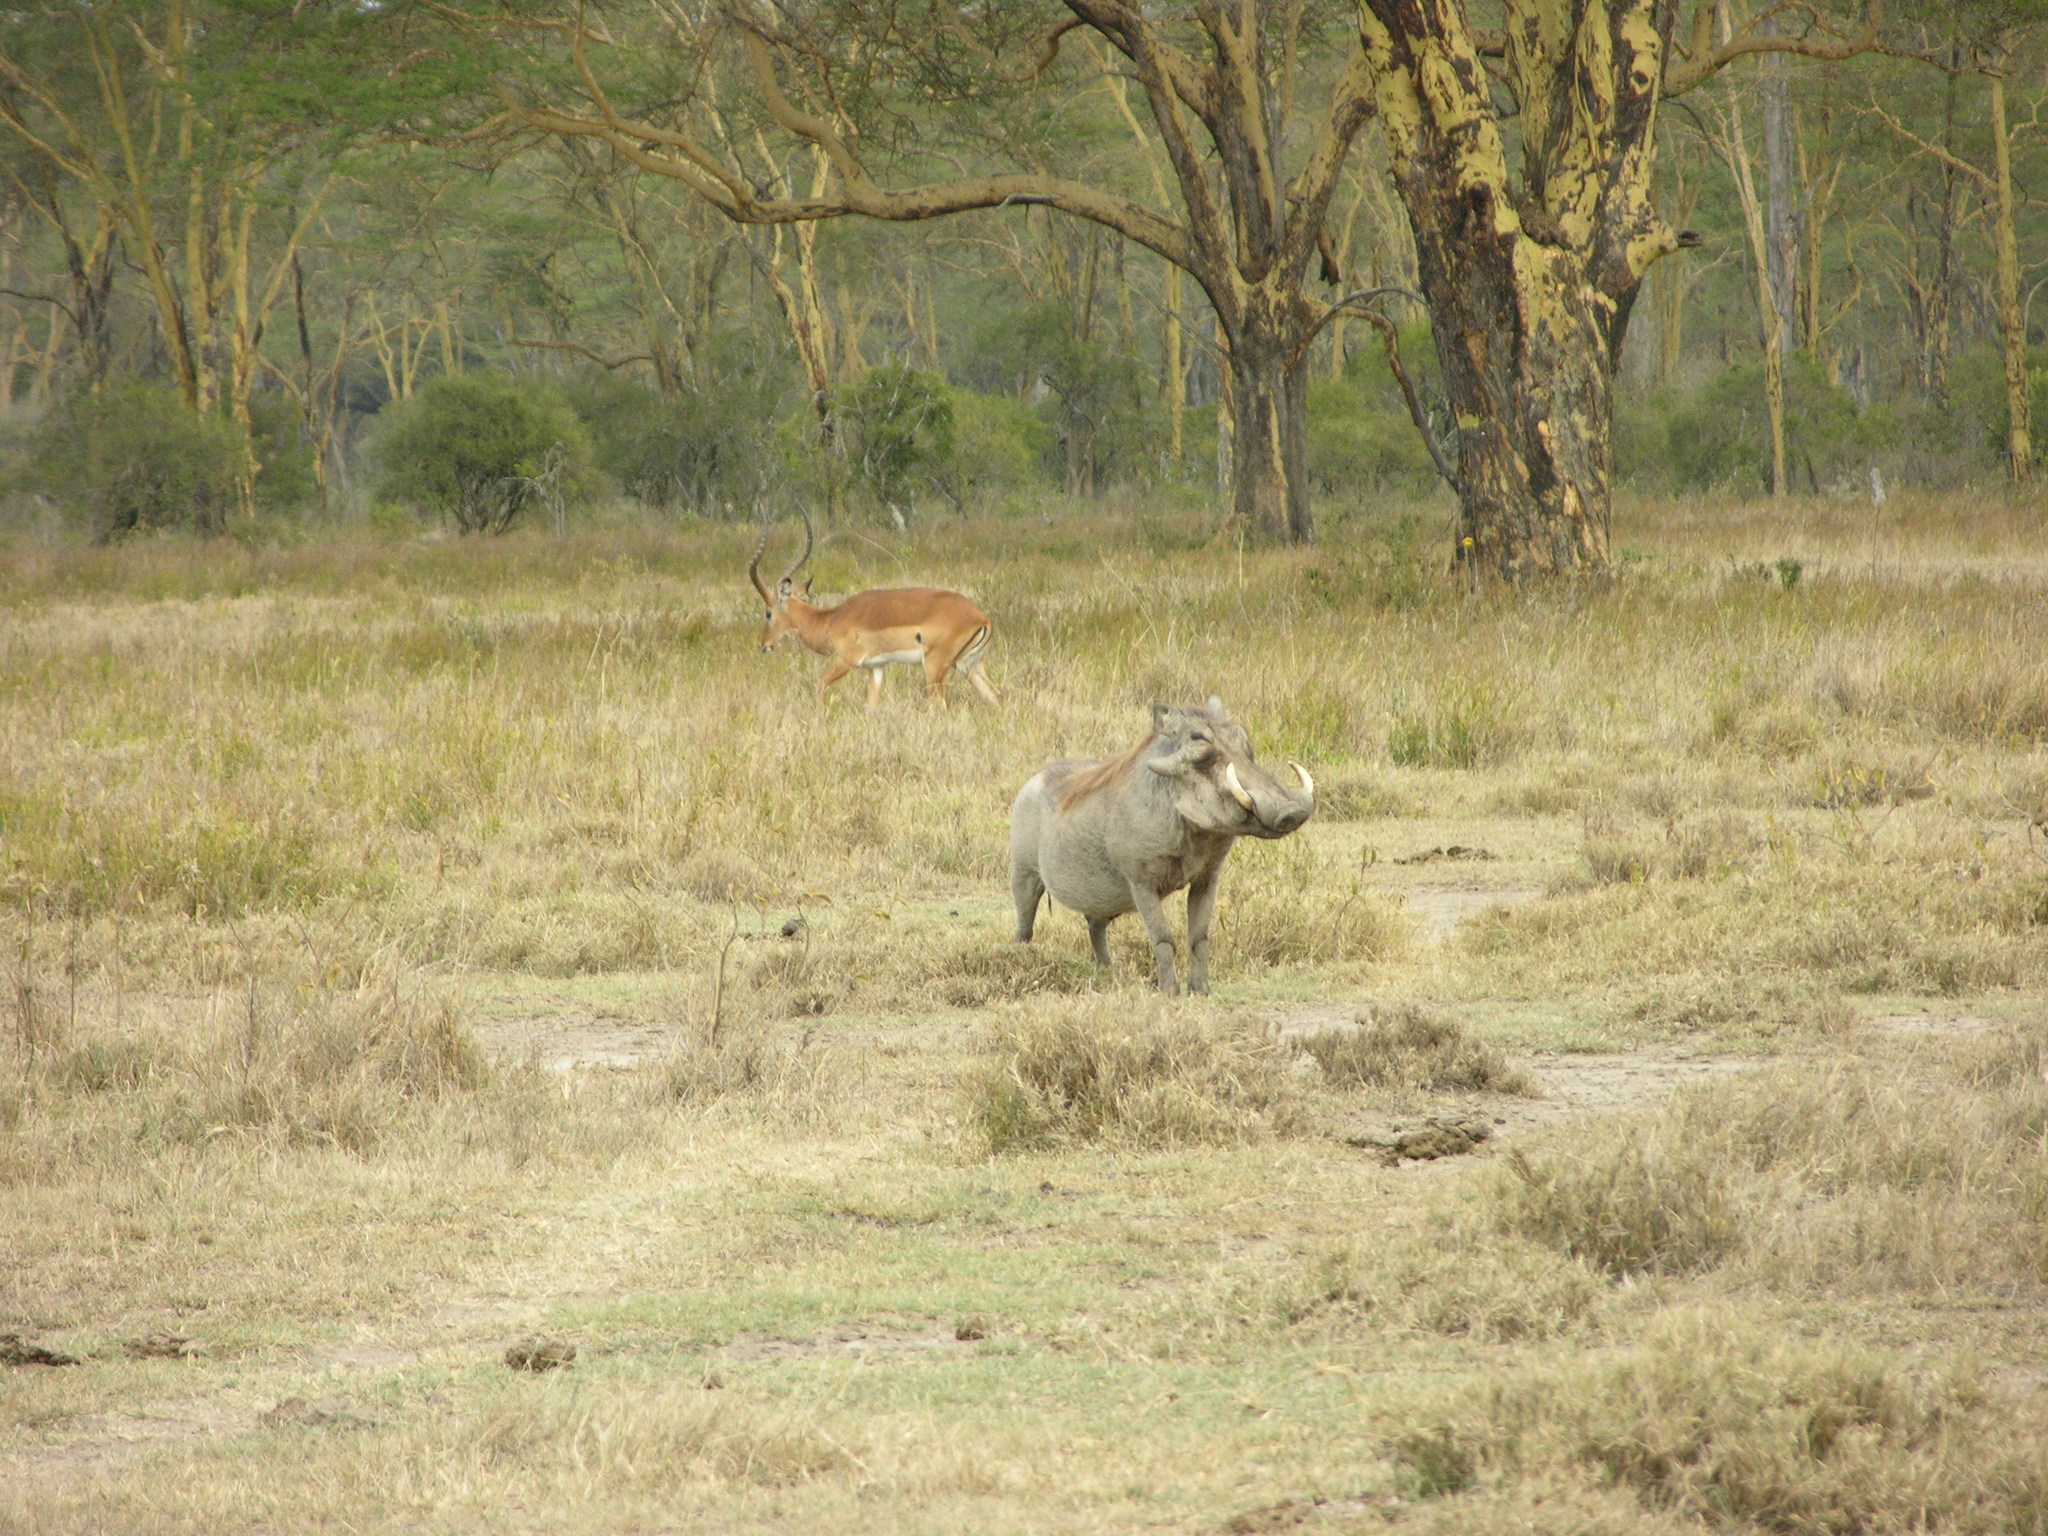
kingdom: Animalia
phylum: Chordata
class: Mammalia
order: Artiodactyla
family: Suidae
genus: Phacochoerus
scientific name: Phacochoerus africanus
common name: Common warthog
